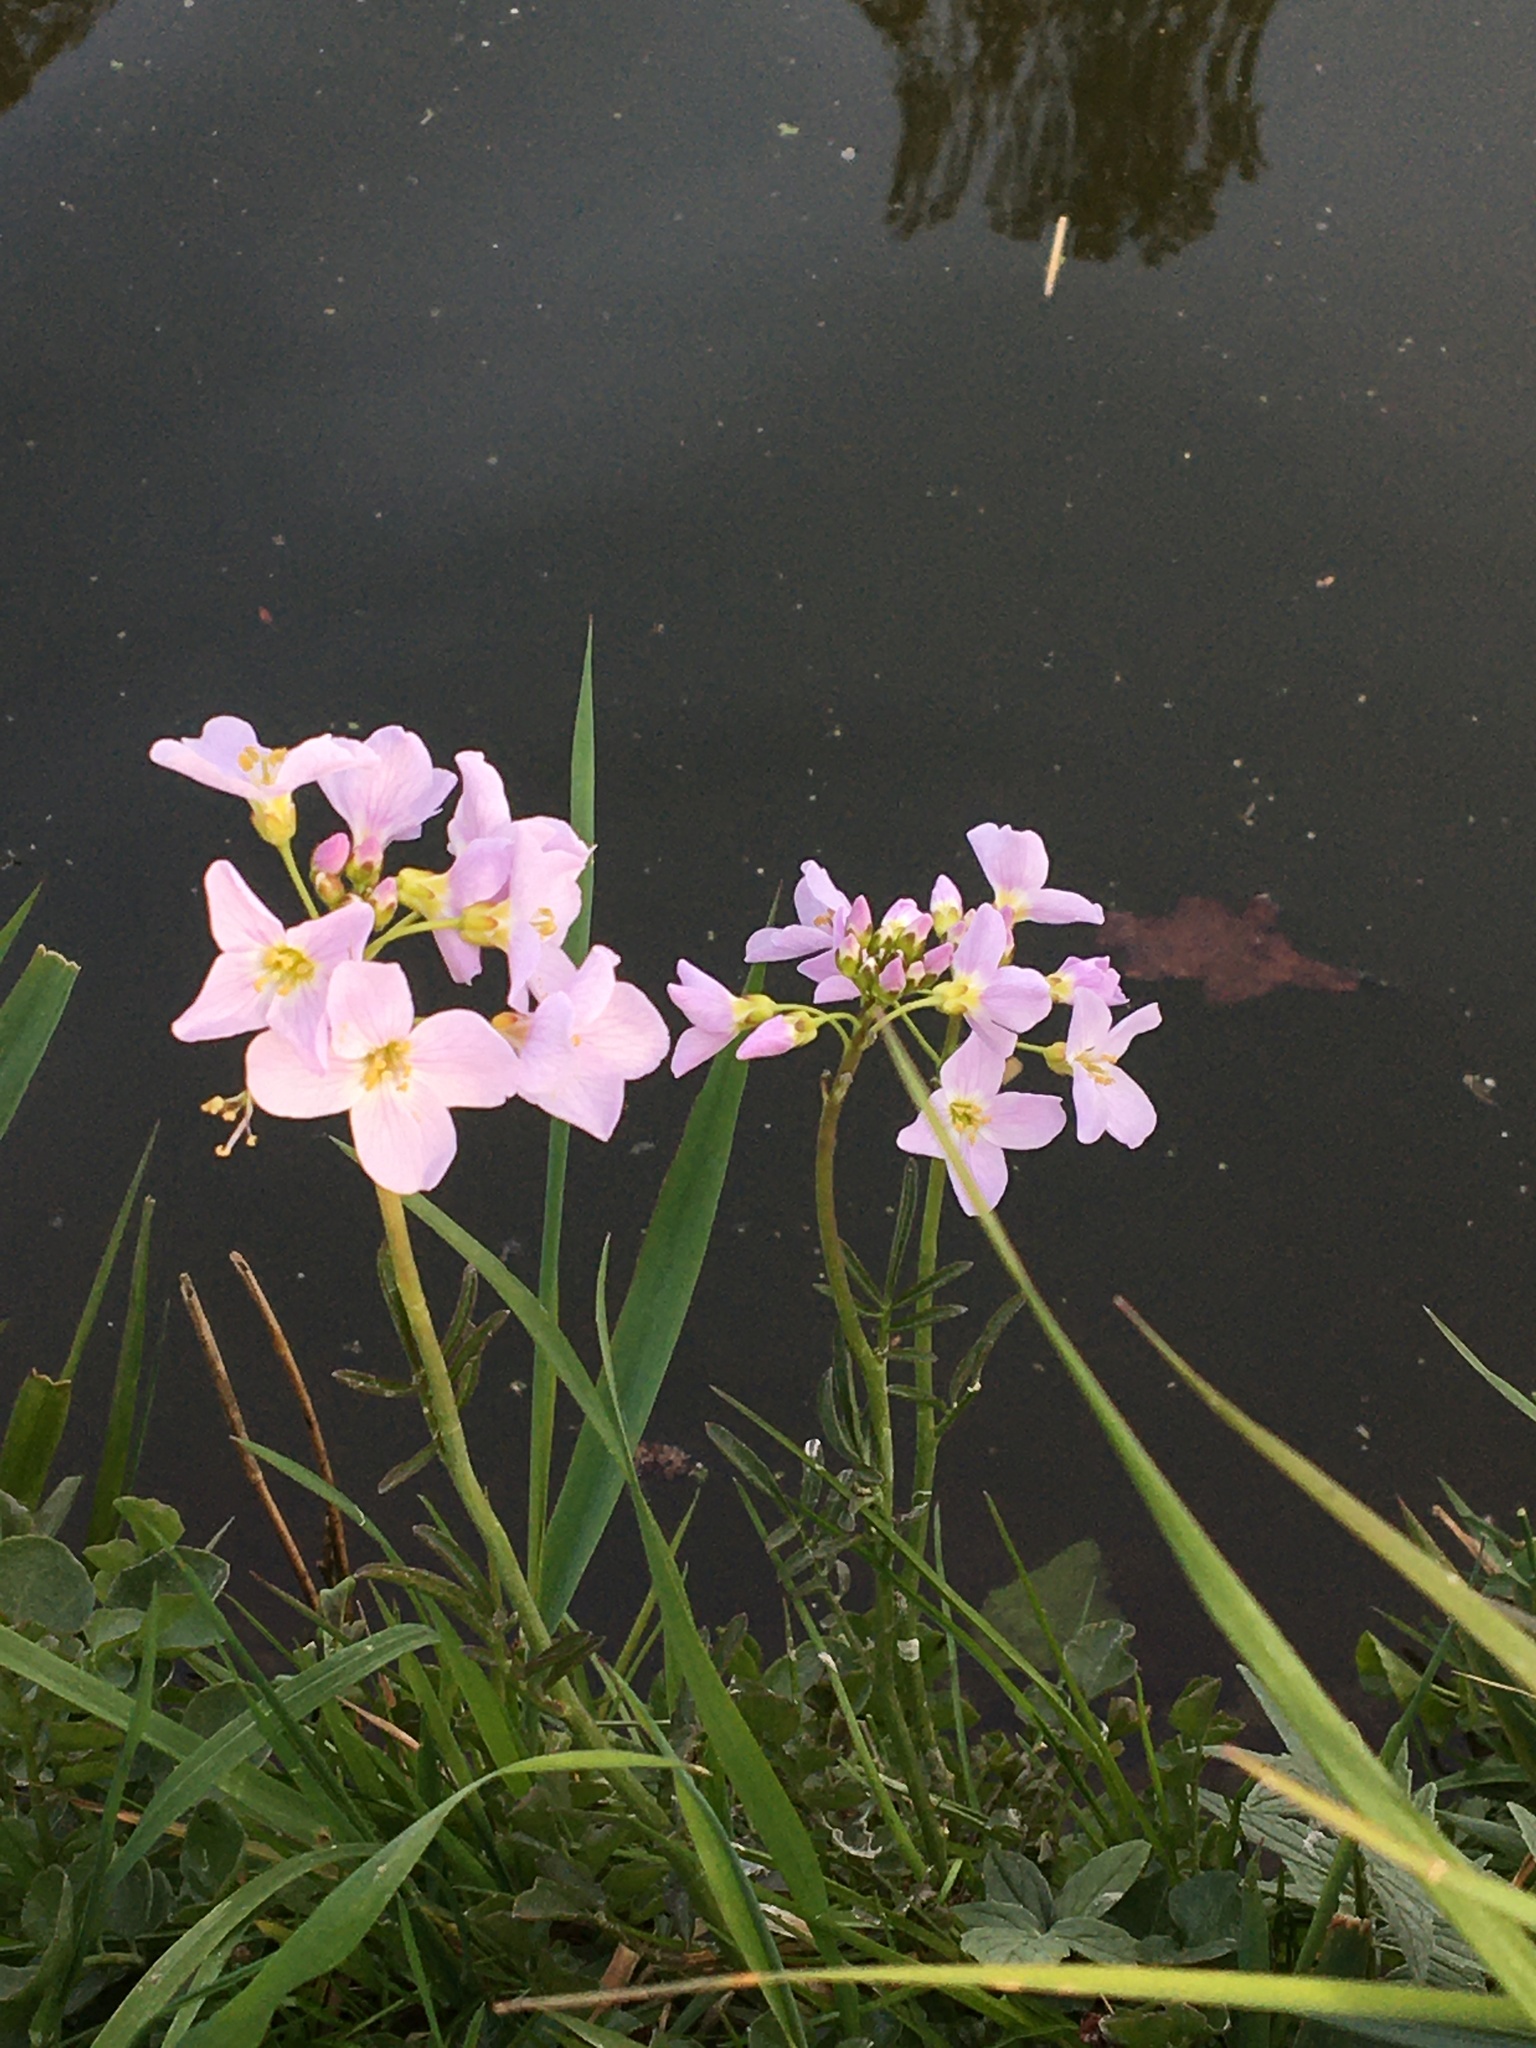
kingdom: Plantae
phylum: Tracheophyta
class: Magnoliopsida
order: Brassicales
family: Brassicaceae
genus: Cardamine
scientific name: Cardamine pratensis
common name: Cuckoo flower
